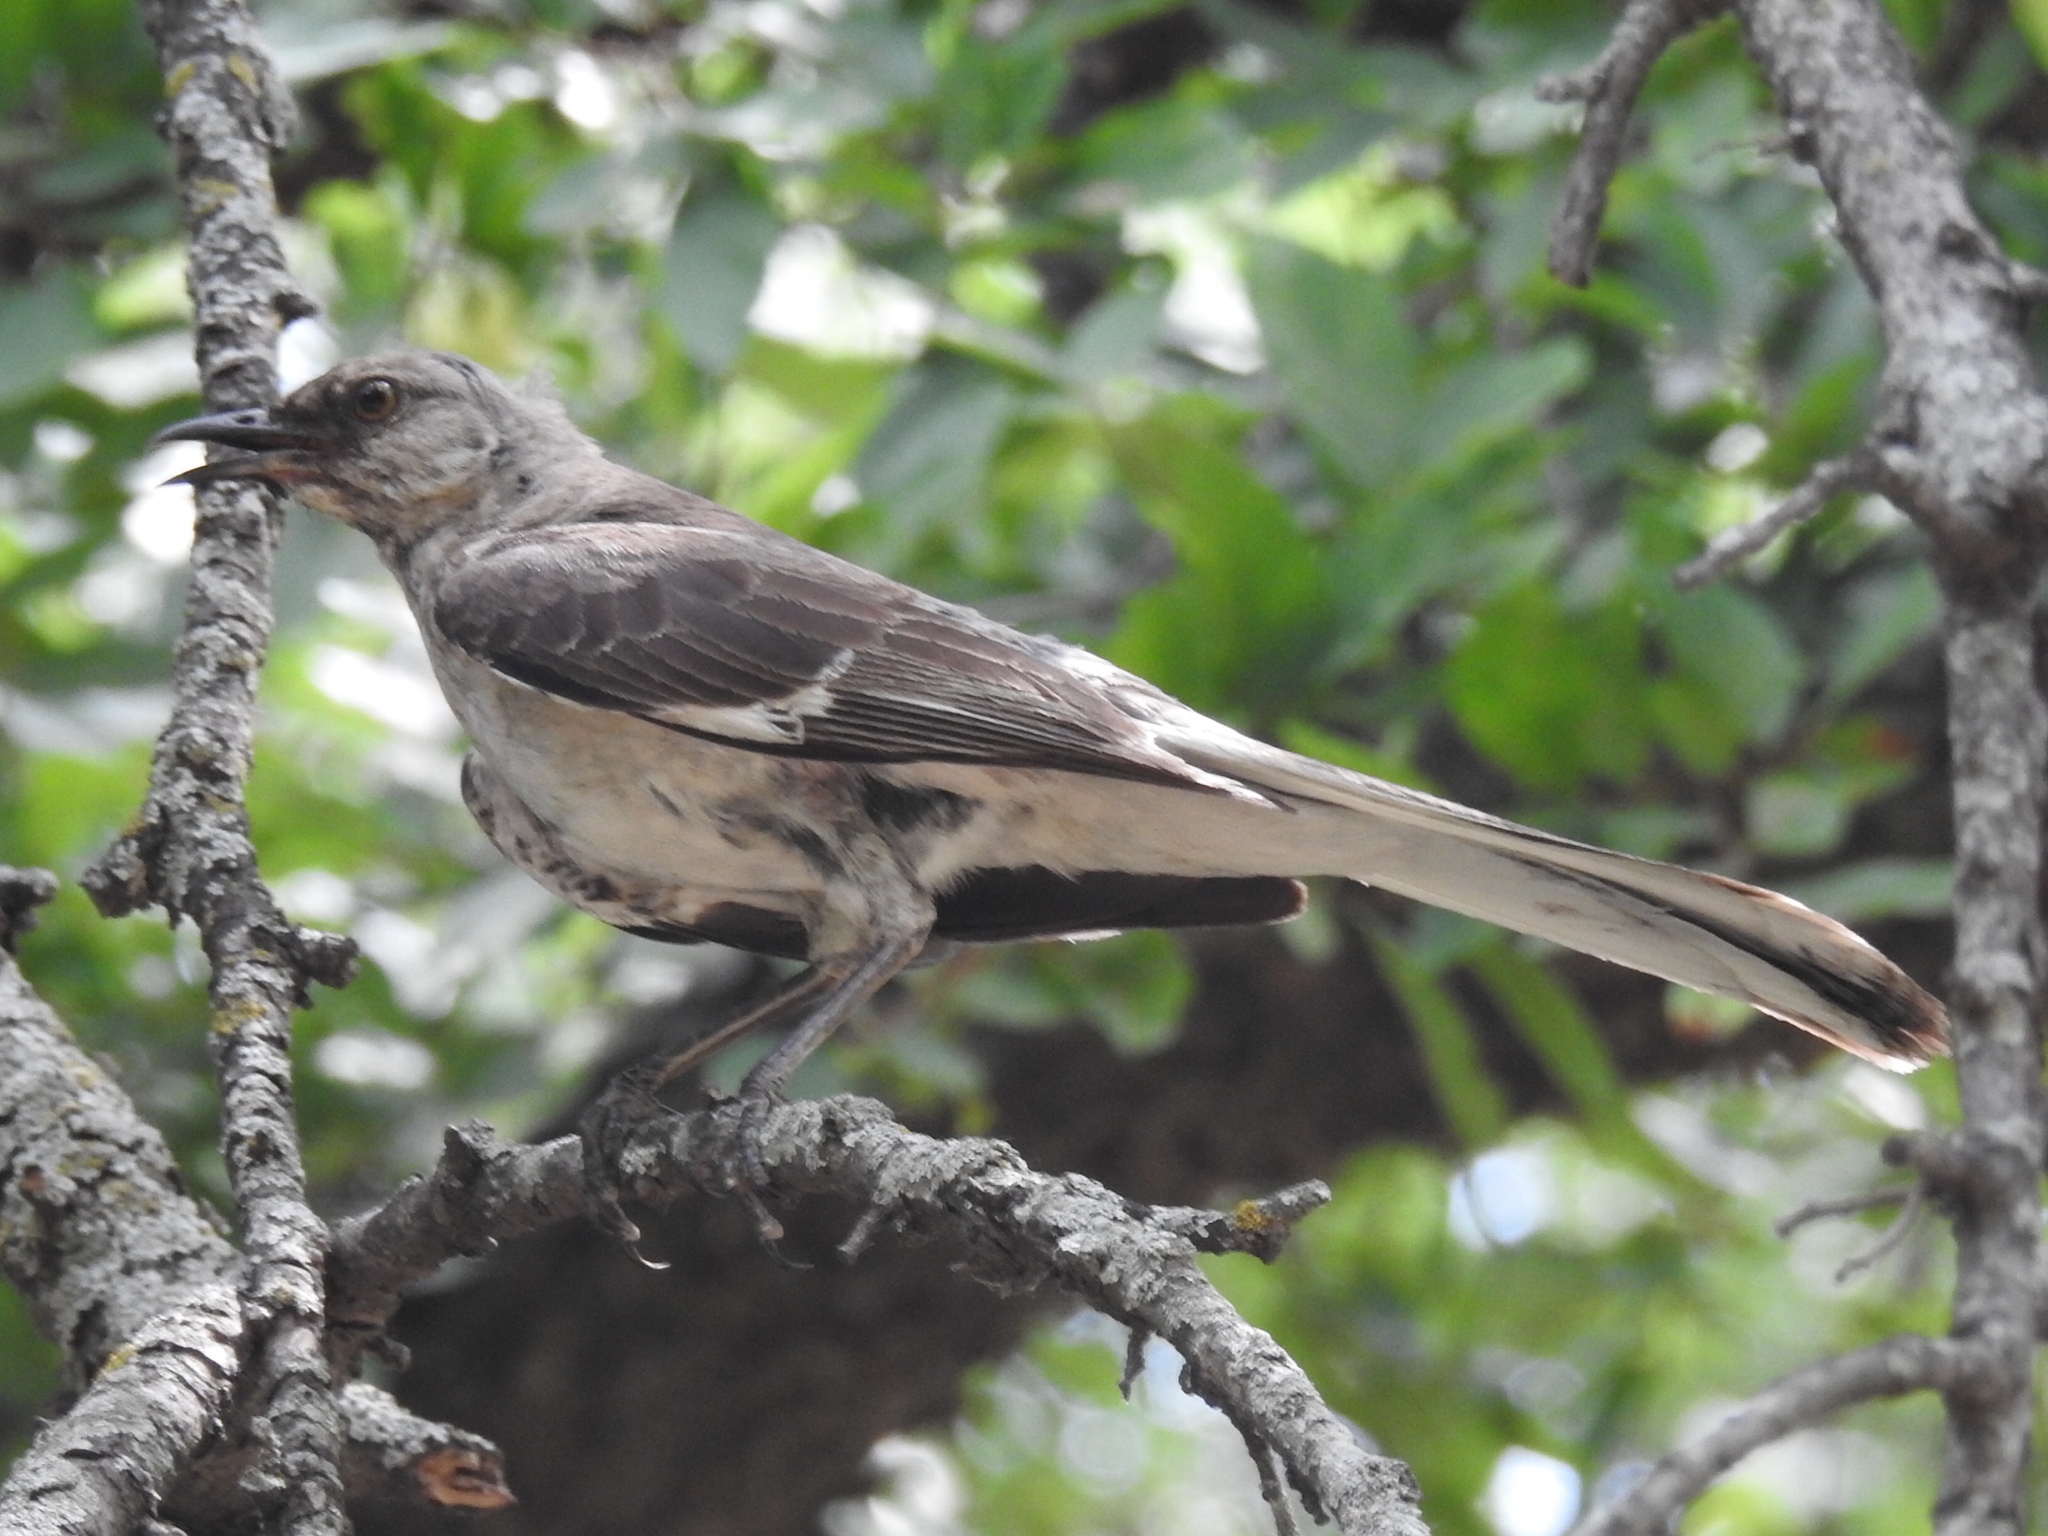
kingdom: Animalia
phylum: Chordata
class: Aves
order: Passeriformes
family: Mimidae
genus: Mimus
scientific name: Mimus polyglottos
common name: Northern mockingbird
